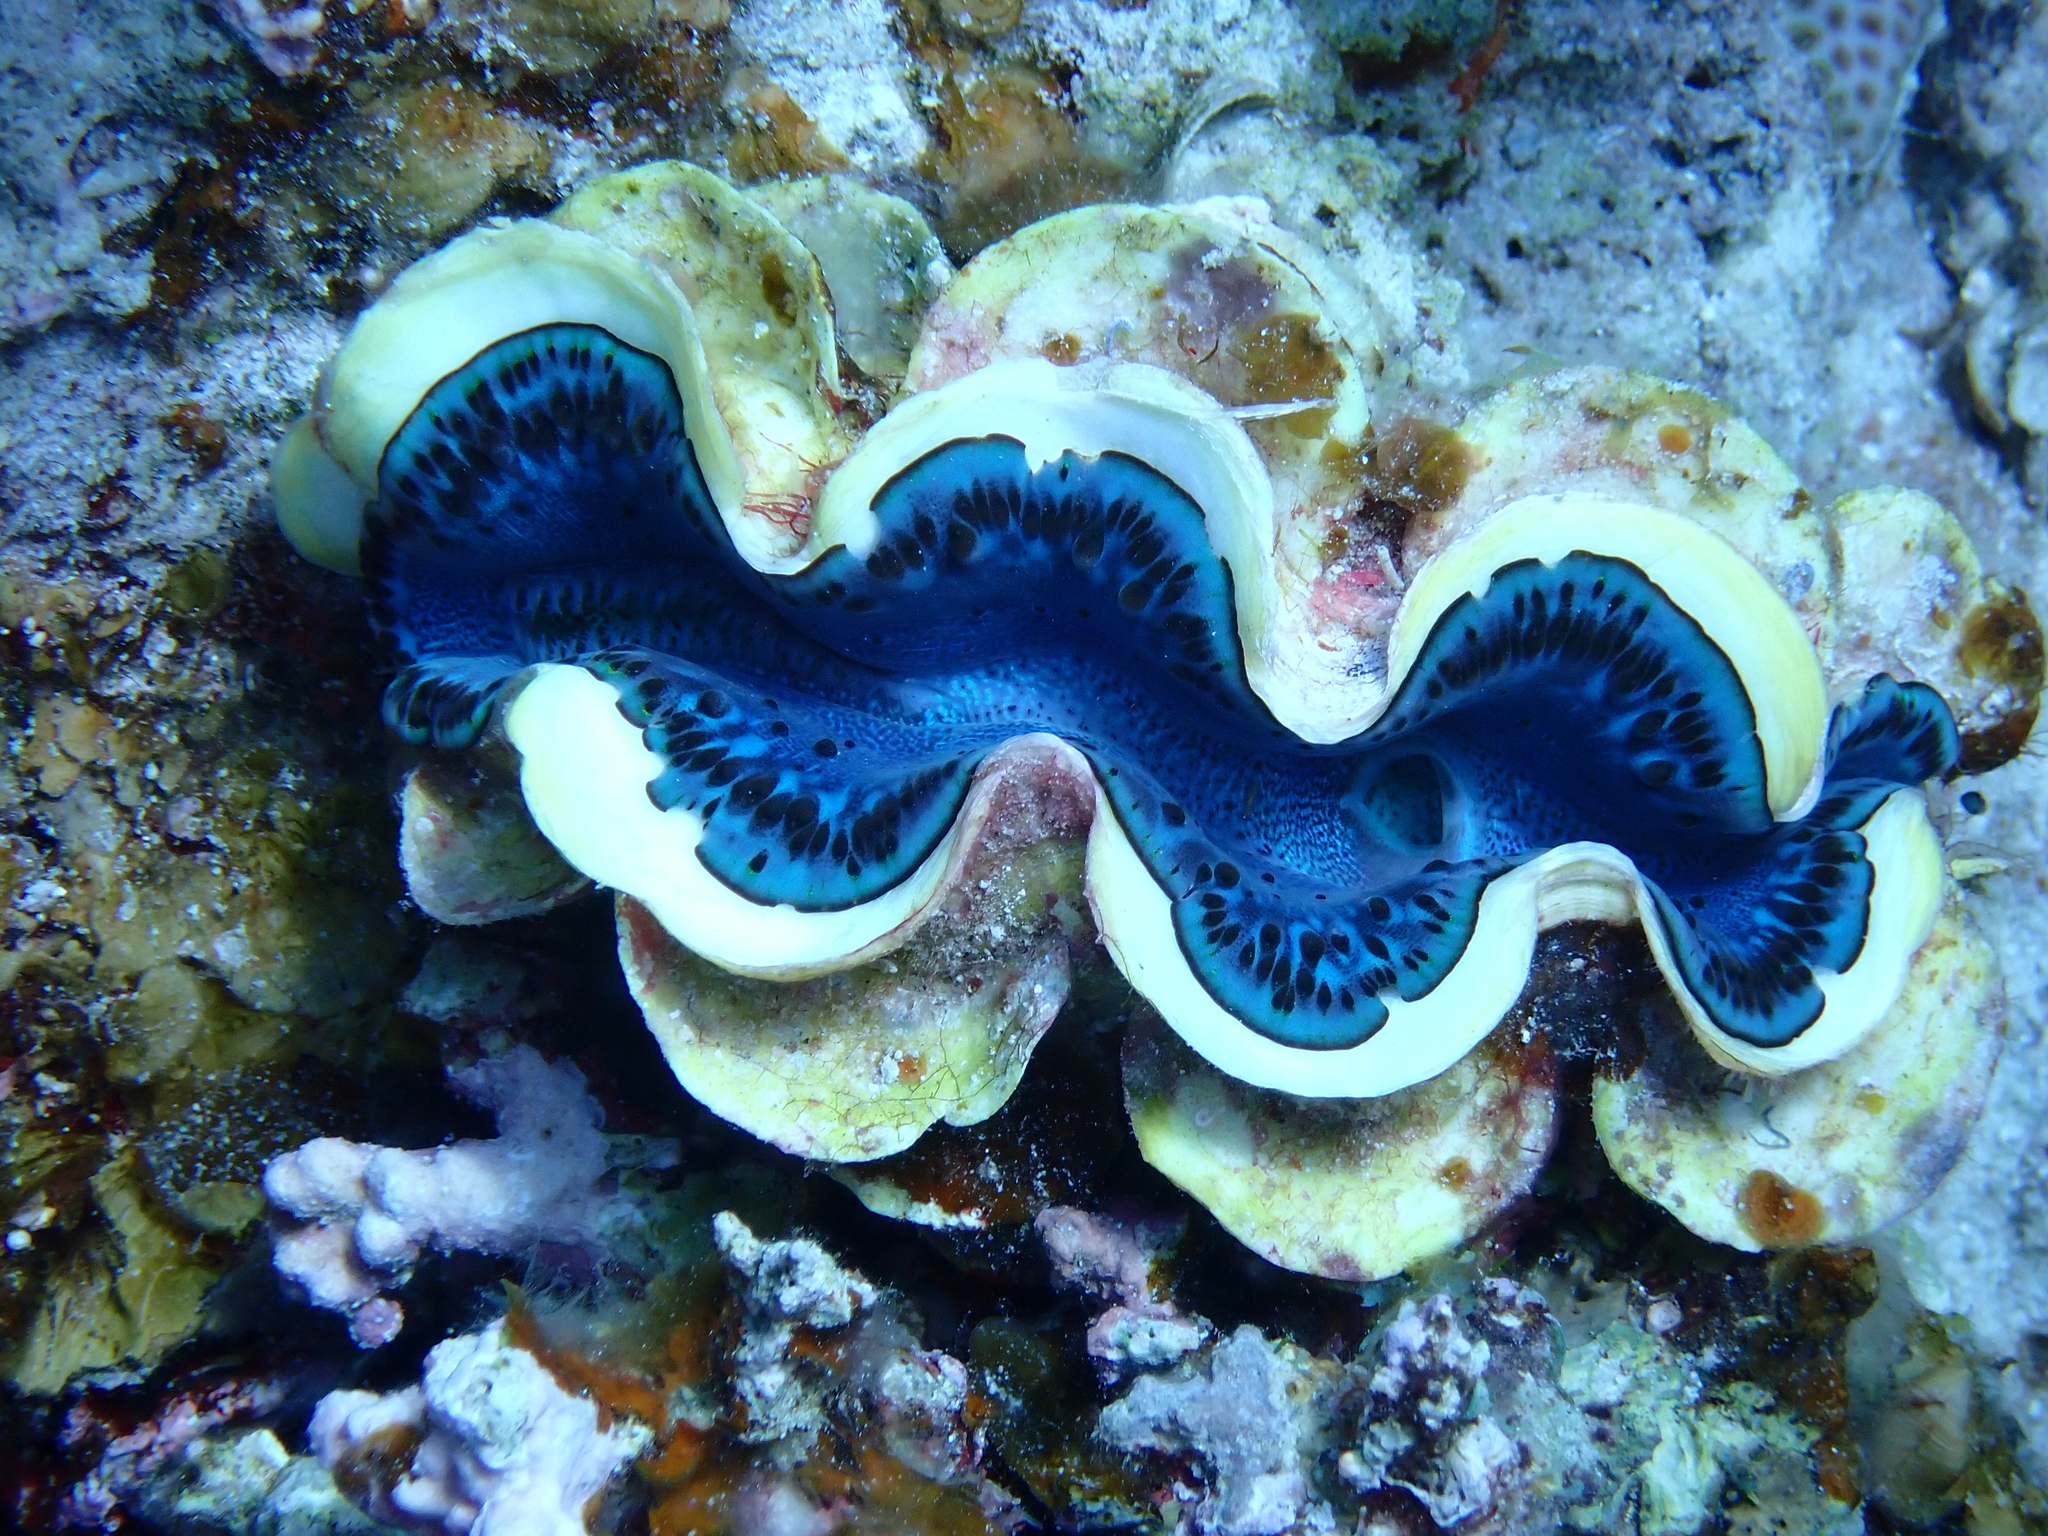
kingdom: Animalia
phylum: Mollusca
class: Bivalvia
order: Cardiida
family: Cardiidae
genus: Tridacna
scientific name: Tridacna maxima
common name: Small giant clam
